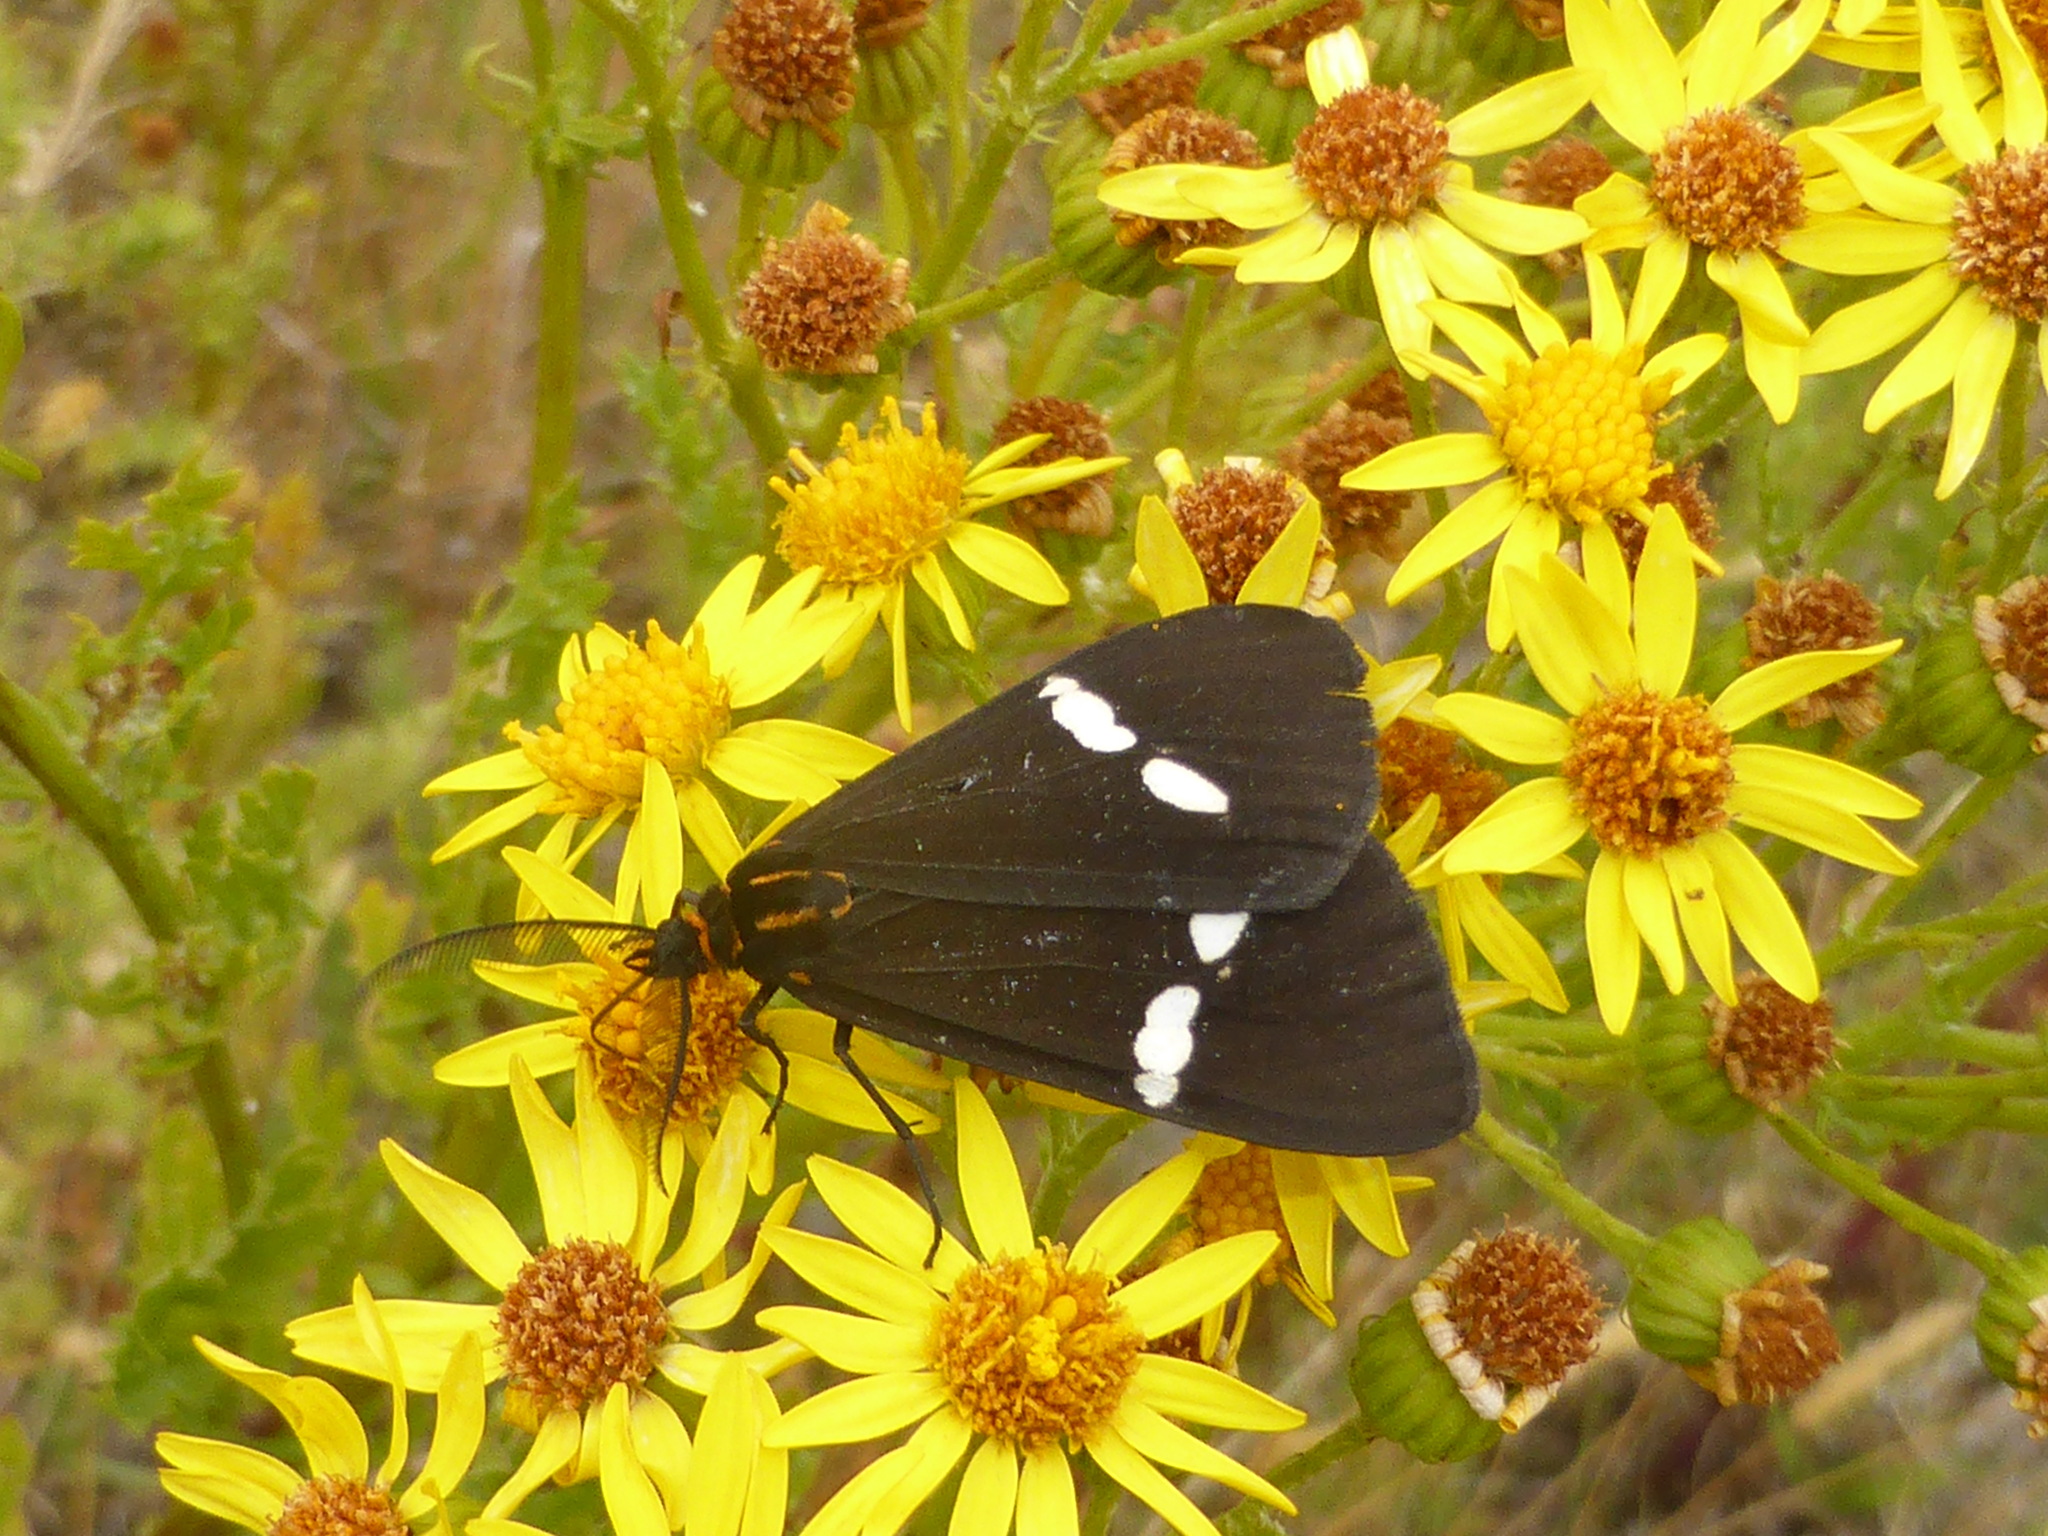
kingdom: Animalia
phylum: Arthropoda
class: Insecta
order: Lepidoptera
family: Erebidae
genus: Nyctemera
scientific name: Nyctemera annulatum
